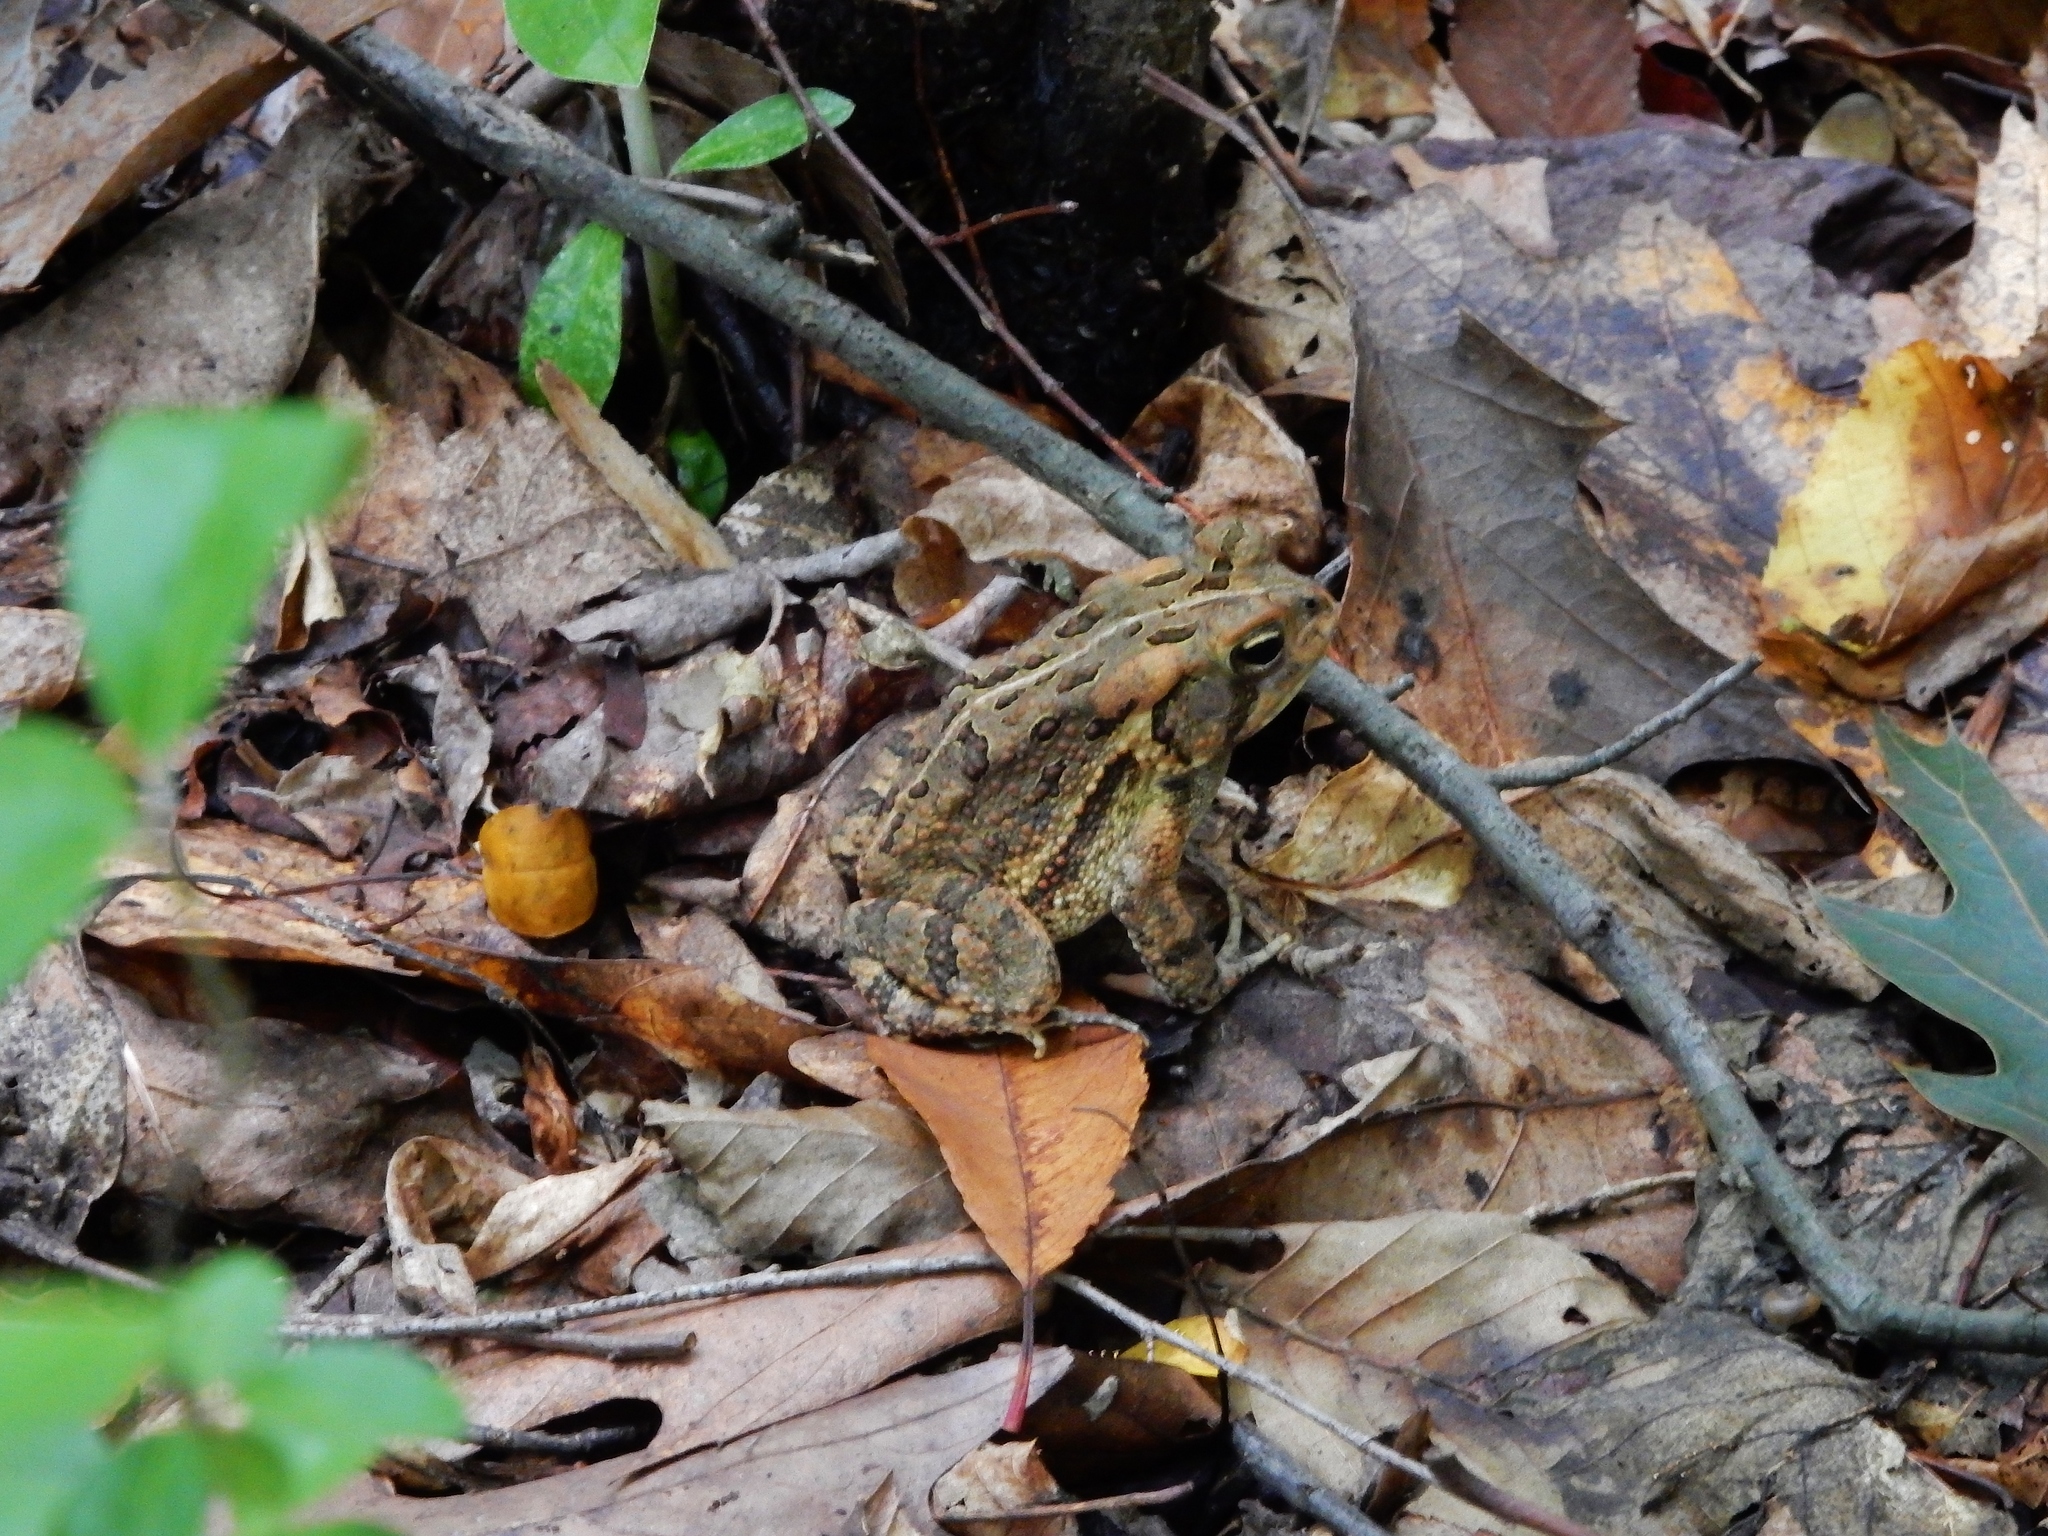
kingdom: Animalia
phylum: Chordata
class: Amphibia
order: Anura
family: Bufonidae
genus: Anaxyrus
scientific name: Anaxyrus fowleri
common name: Fowler's toad
